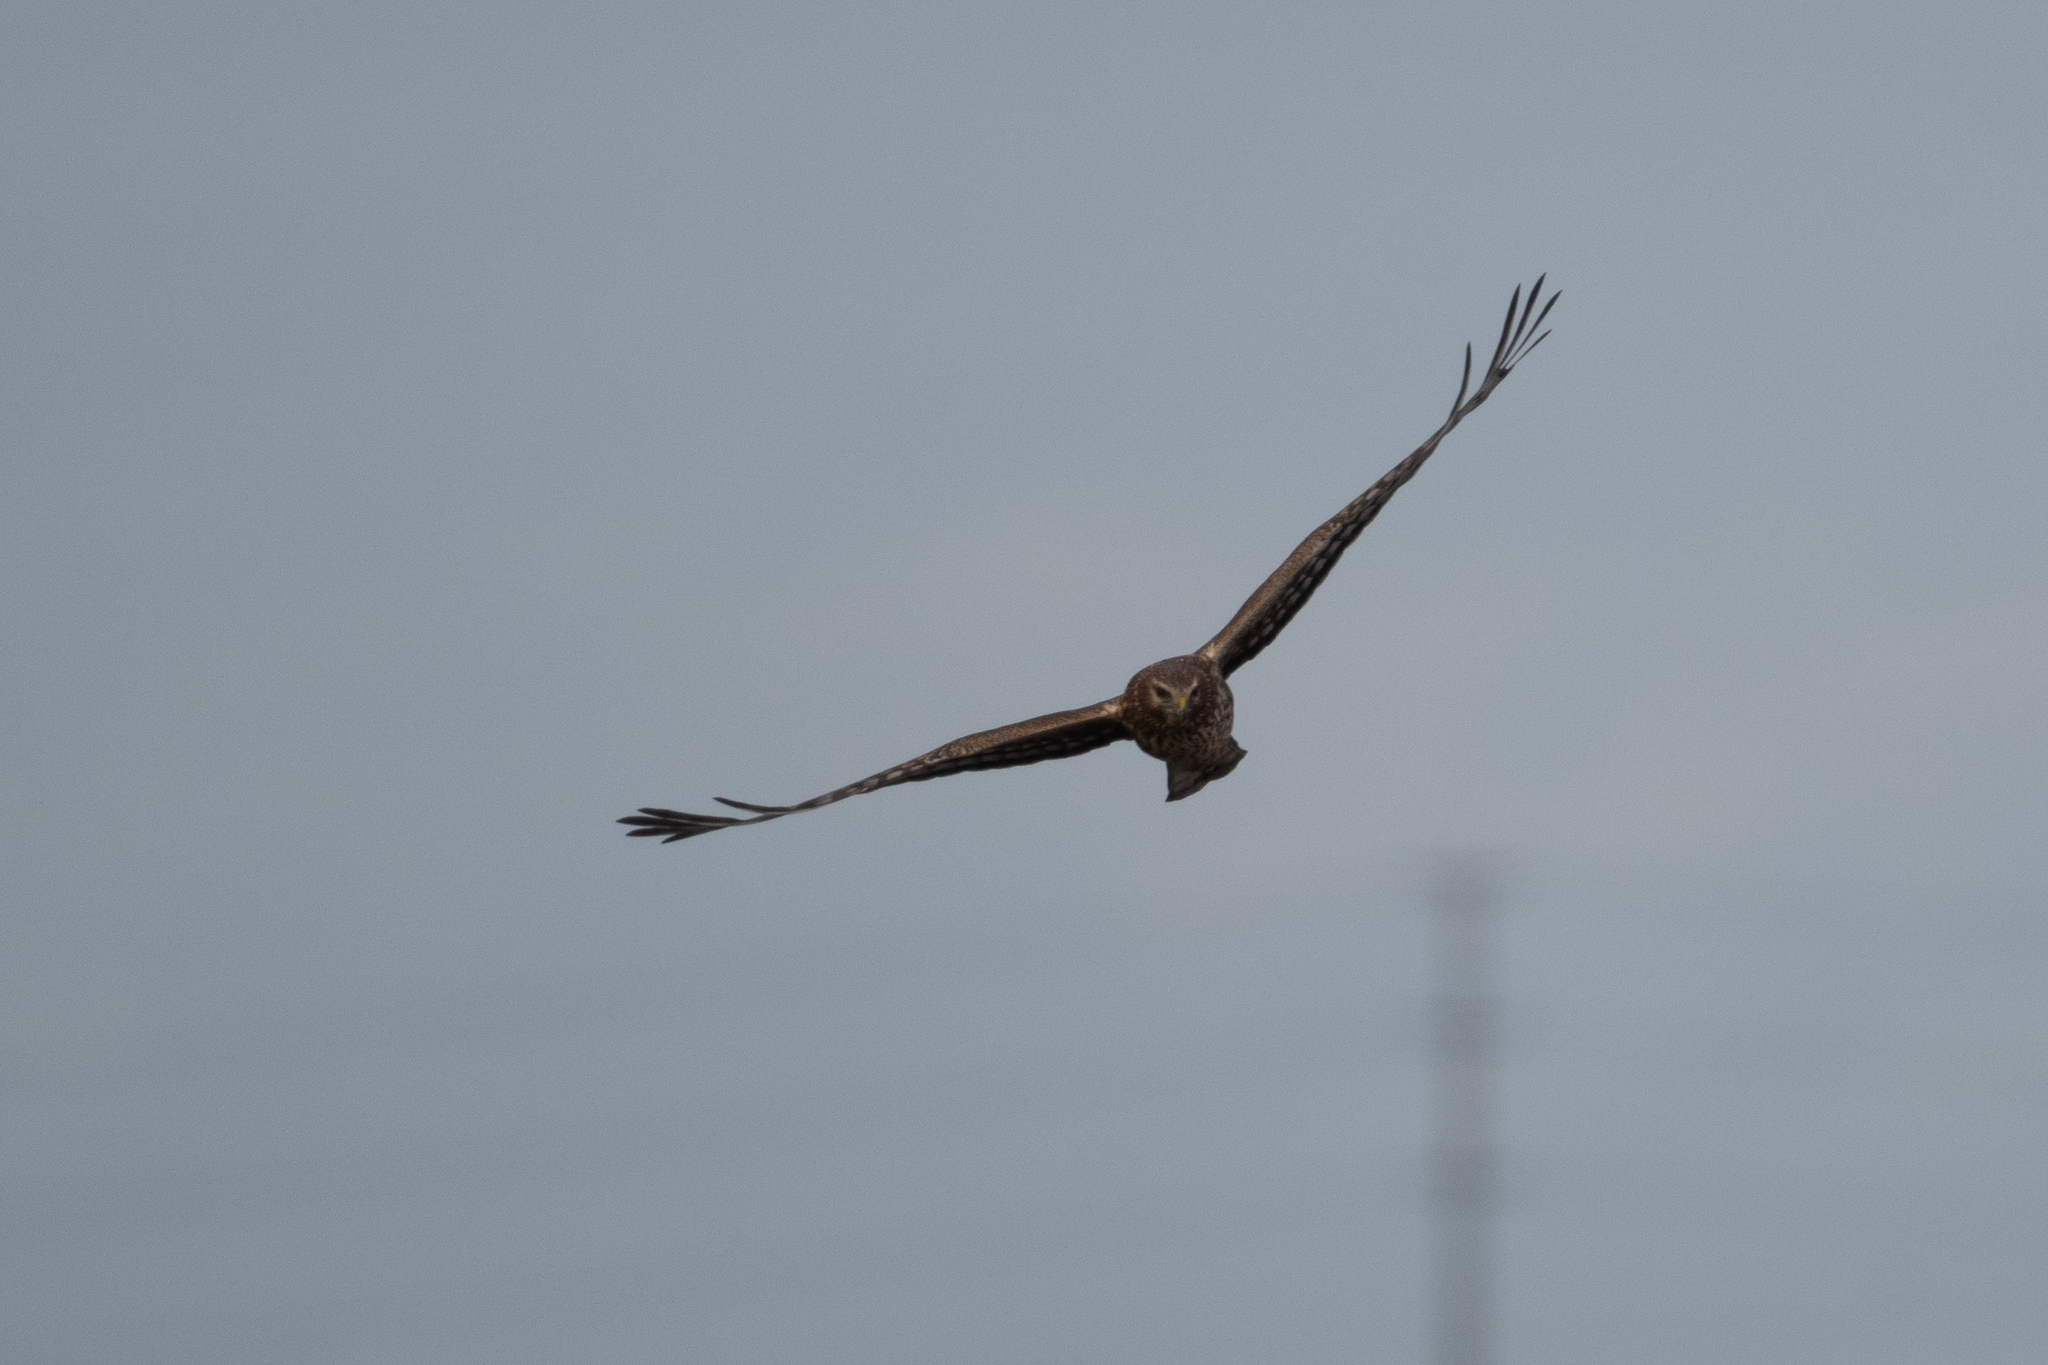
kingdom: Animalia
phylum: Chordata
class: Aves
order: Accipitriformes
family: Accipitridae
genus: Circus
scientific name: Circus cyaneus
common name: Hen harrier
